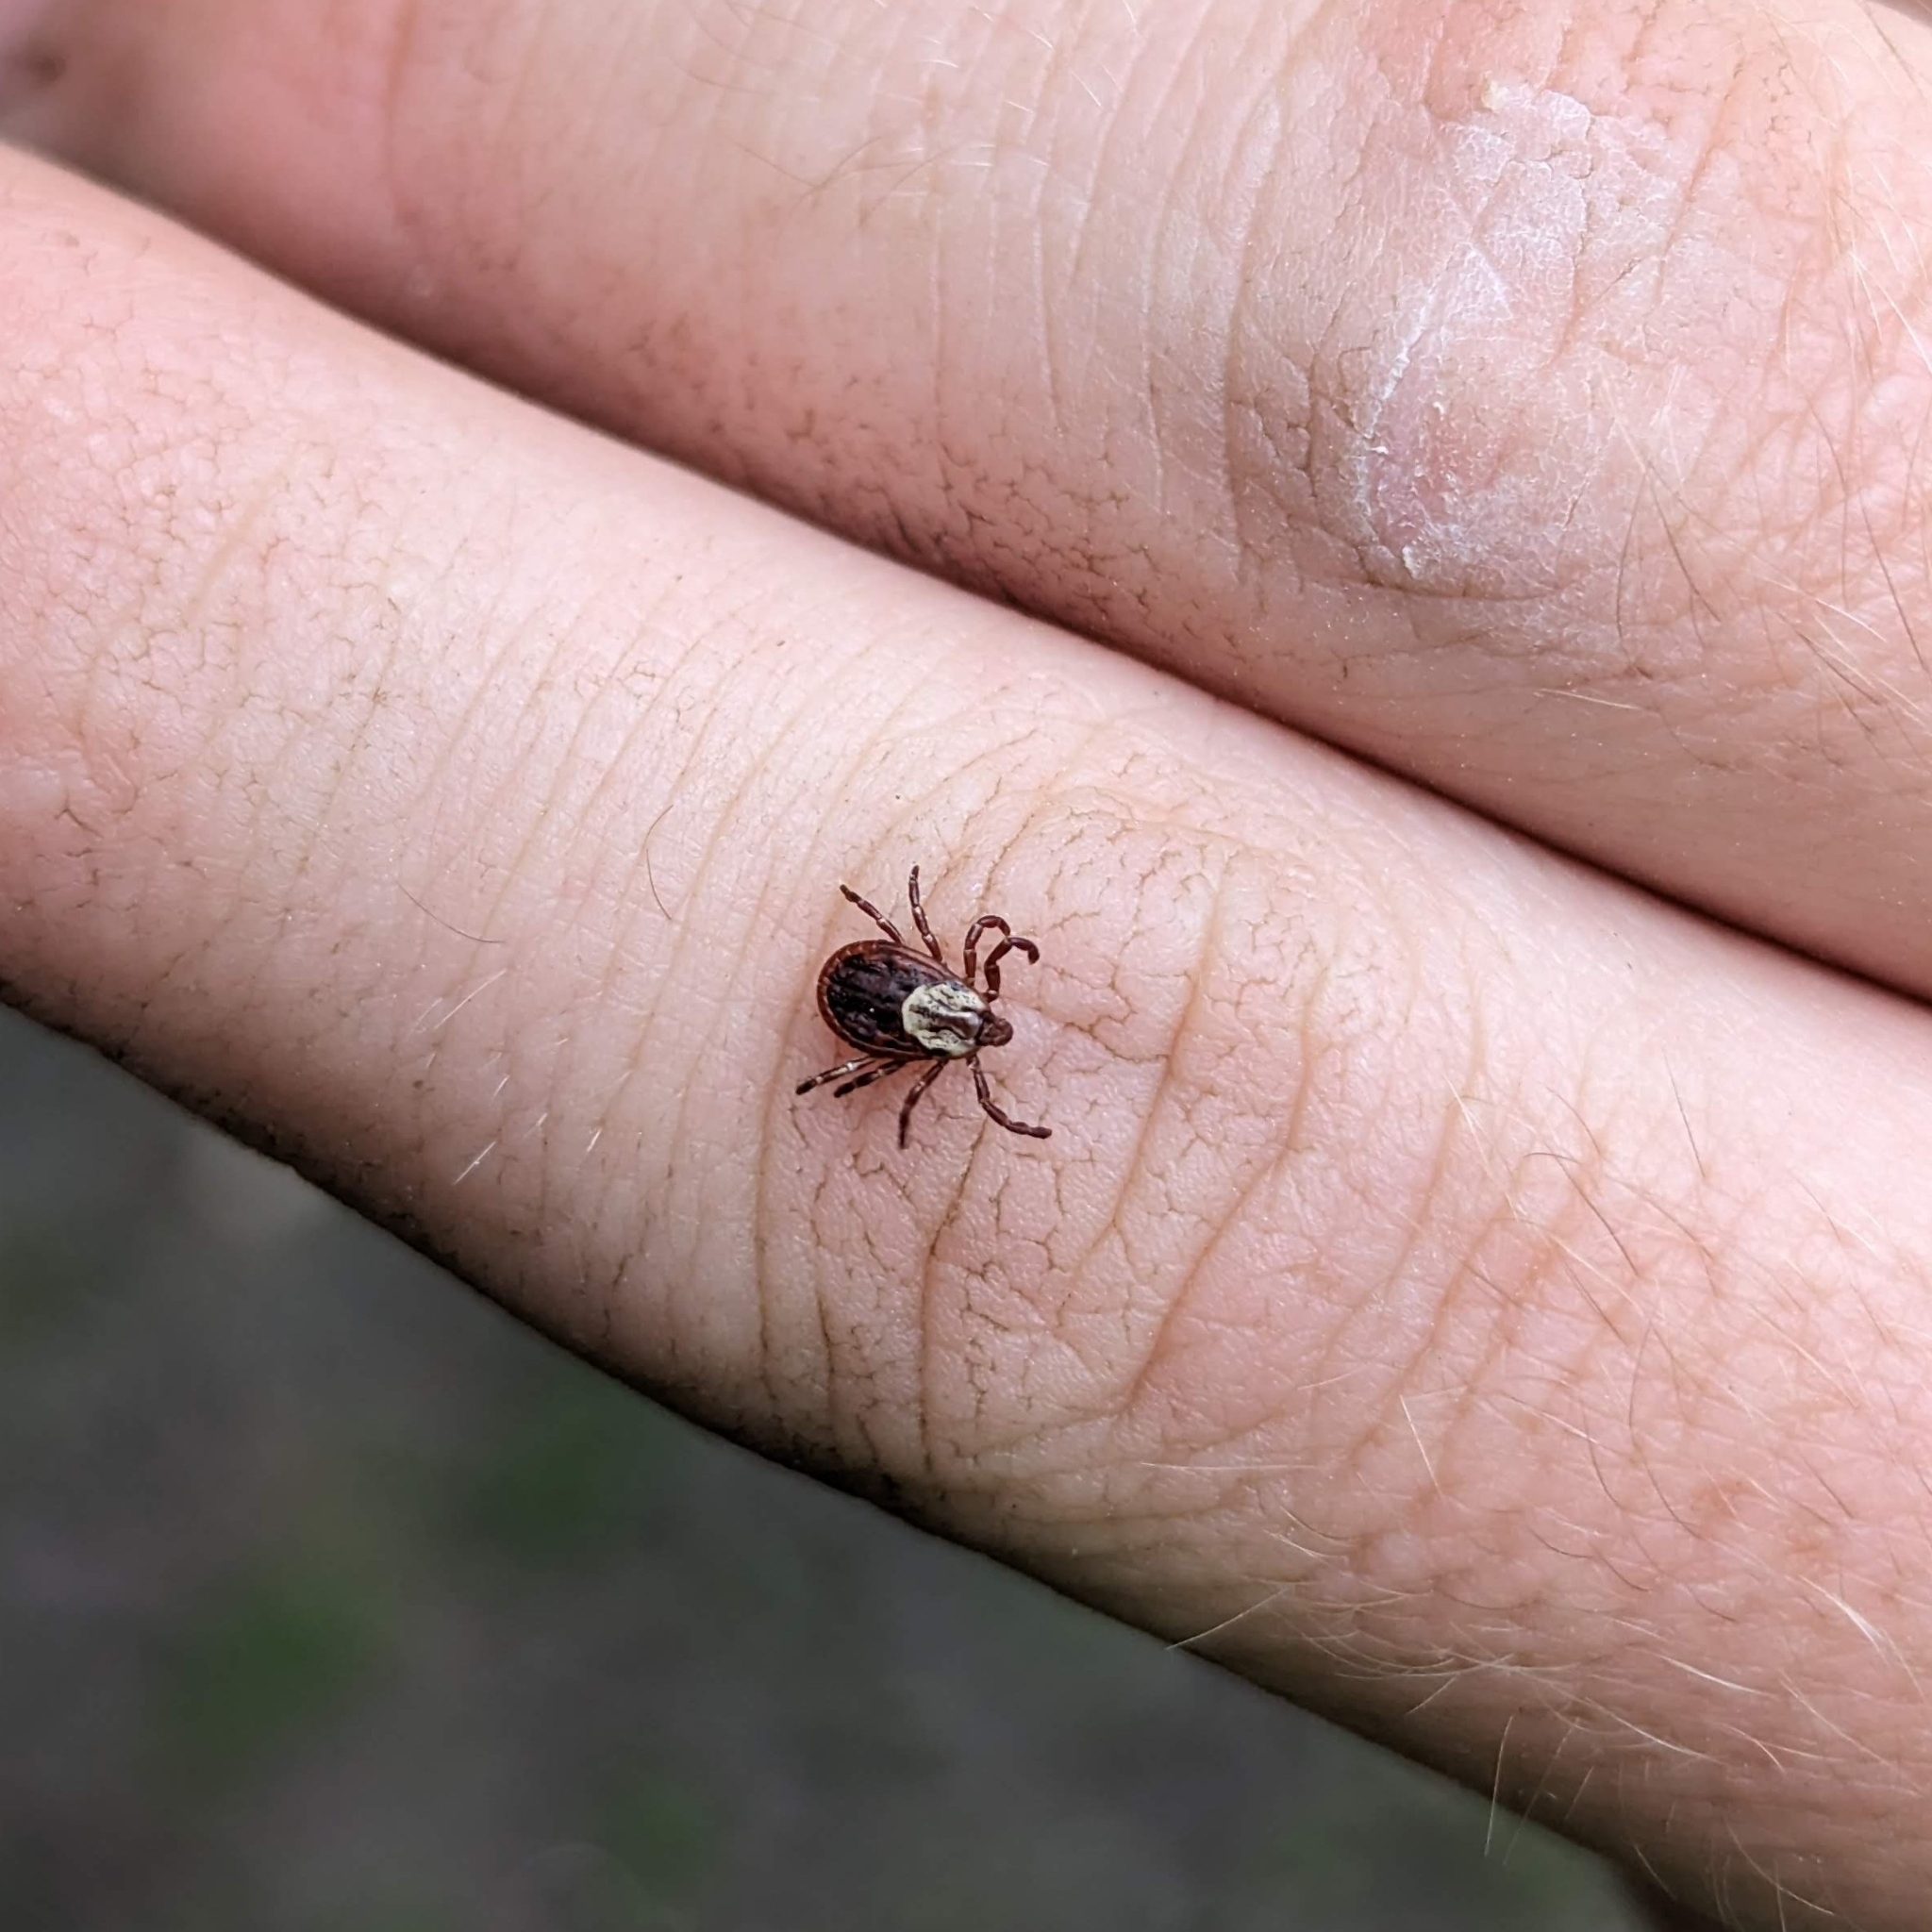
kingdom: Animalia
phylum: Arthropoda
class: Arachnida
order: Ixodida
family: Ixodidae
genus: Dermacentor
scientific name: Dermacentor variabilis
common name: American dog tick
